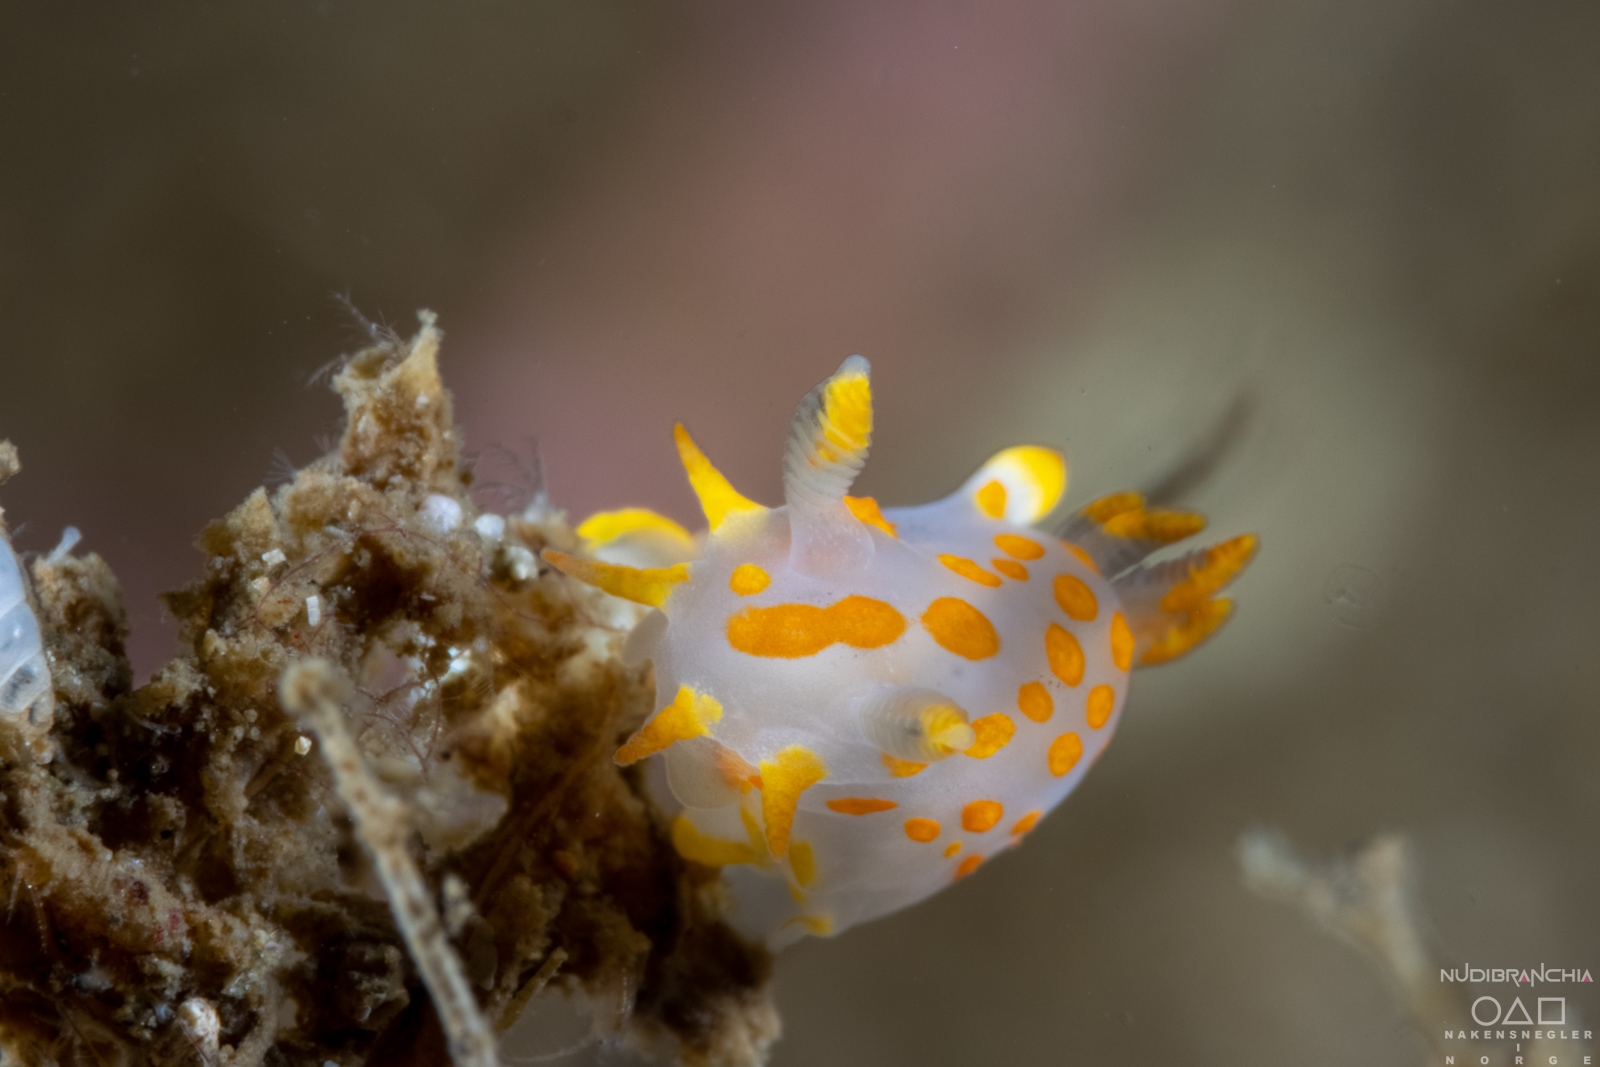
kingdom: Animalia
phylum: Mollusca
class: Gastropoda
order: Nudibranchia
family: Polyceridae
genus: Polycera
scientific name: Polycera quadrilineata
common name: Four-striped polycera
